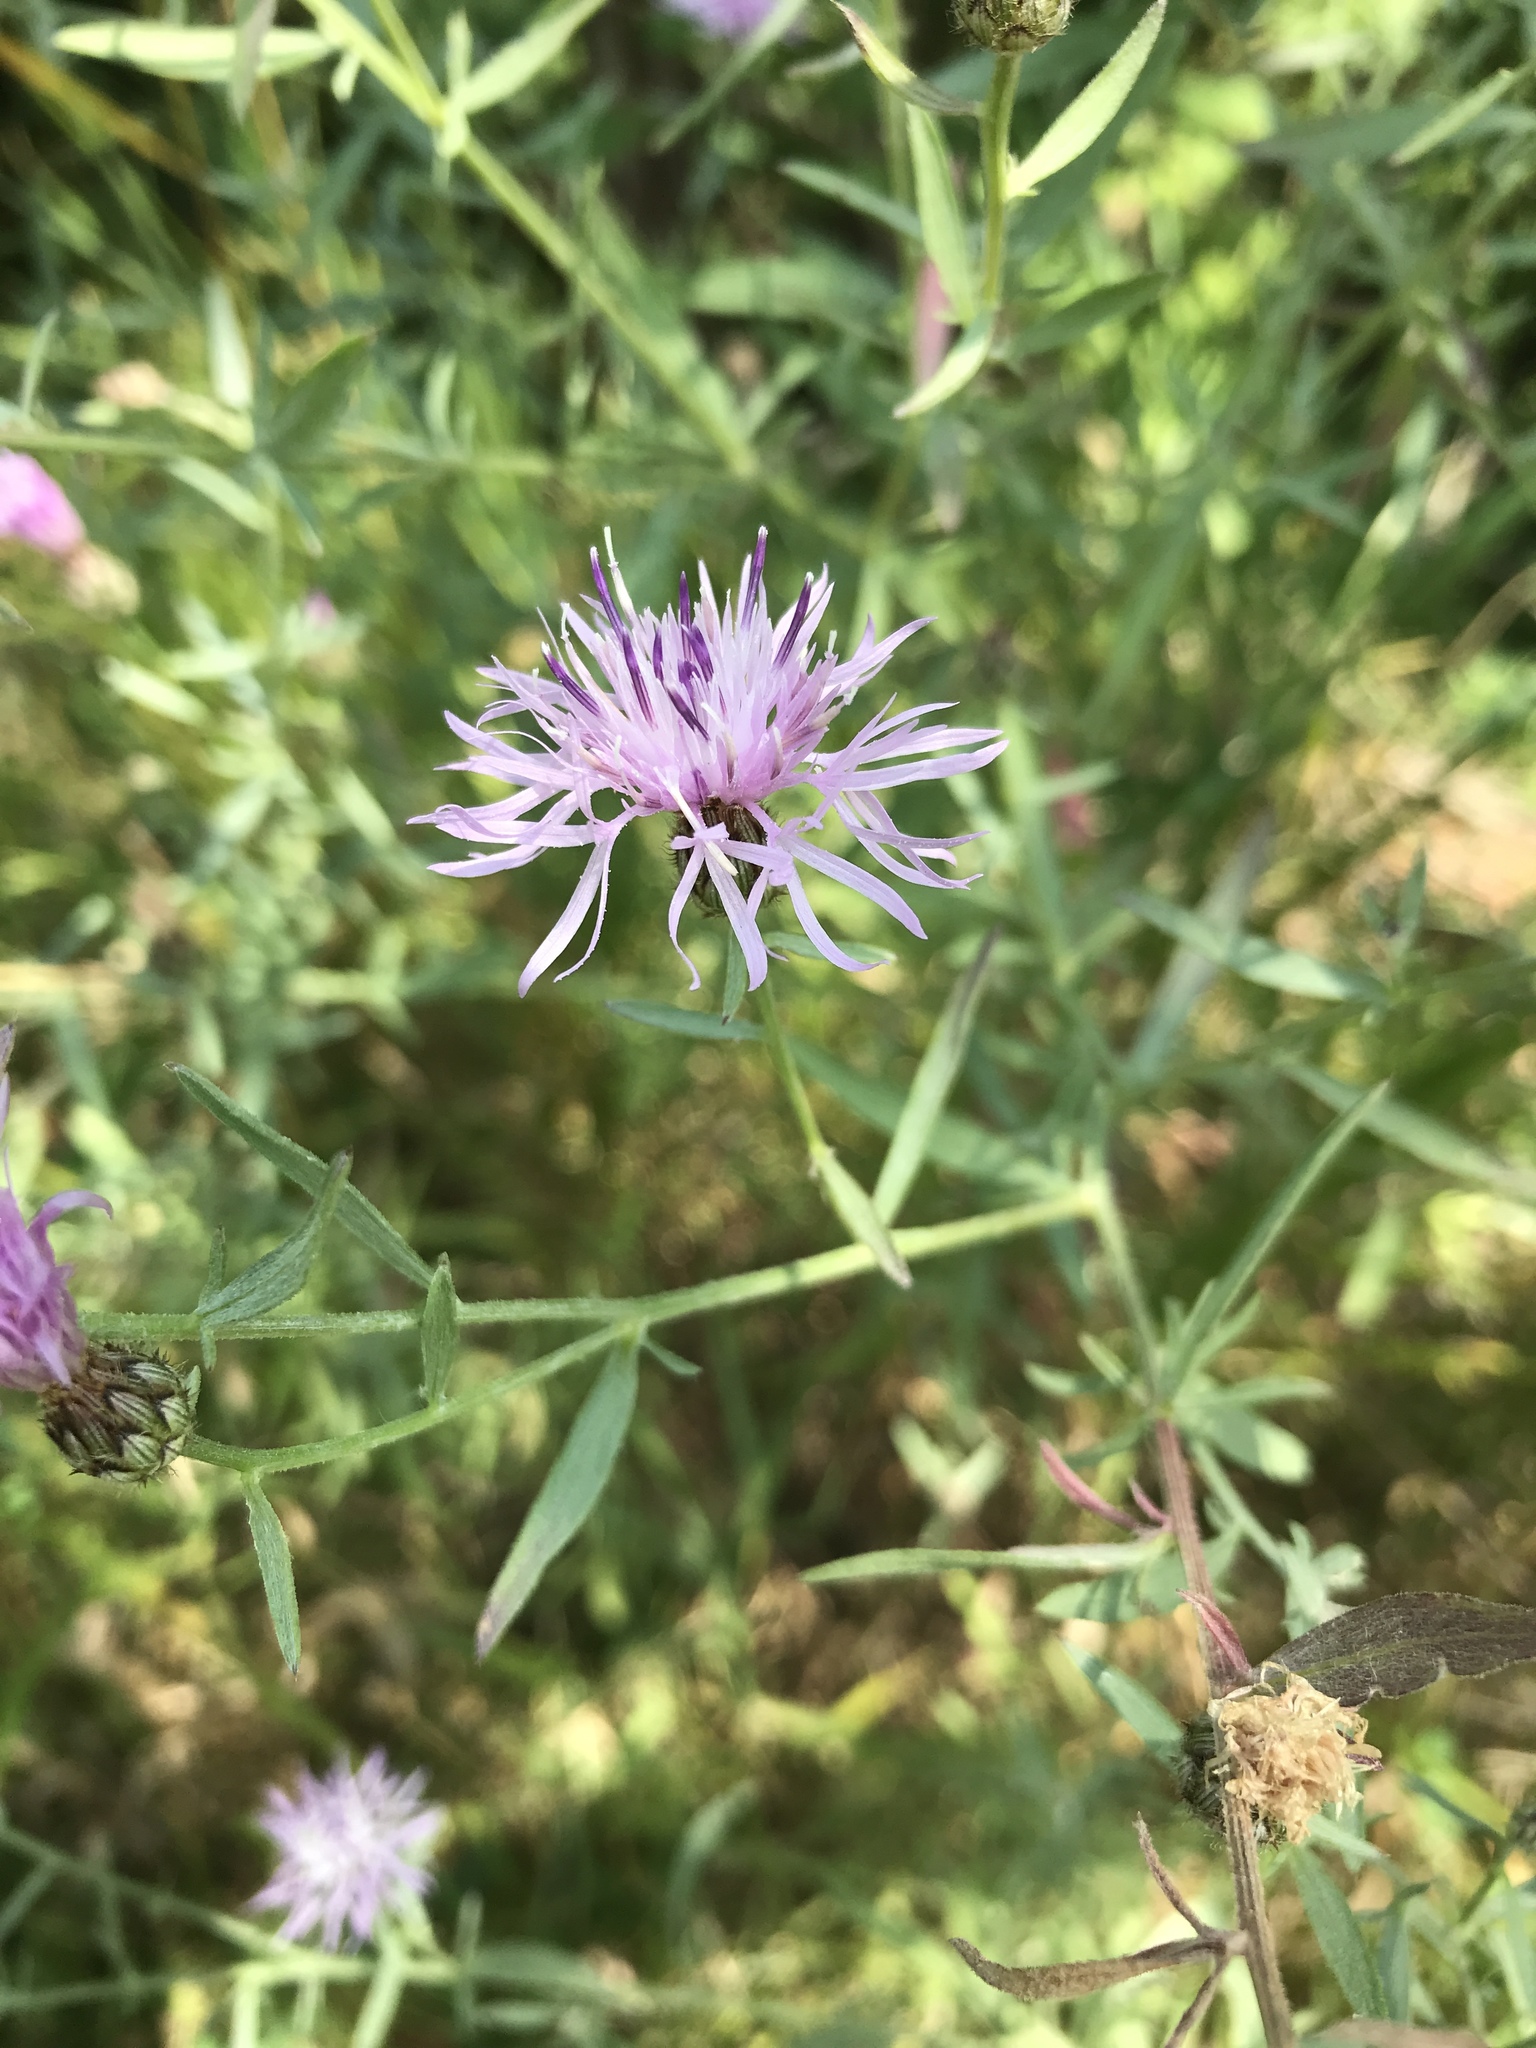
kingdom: Plantae
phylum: Tracheophyta
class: Magnoliopsida
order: Asterales
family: Asteraceae
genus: Centaurea
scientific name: Centaurea stoebe
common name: Spotted knapweed
